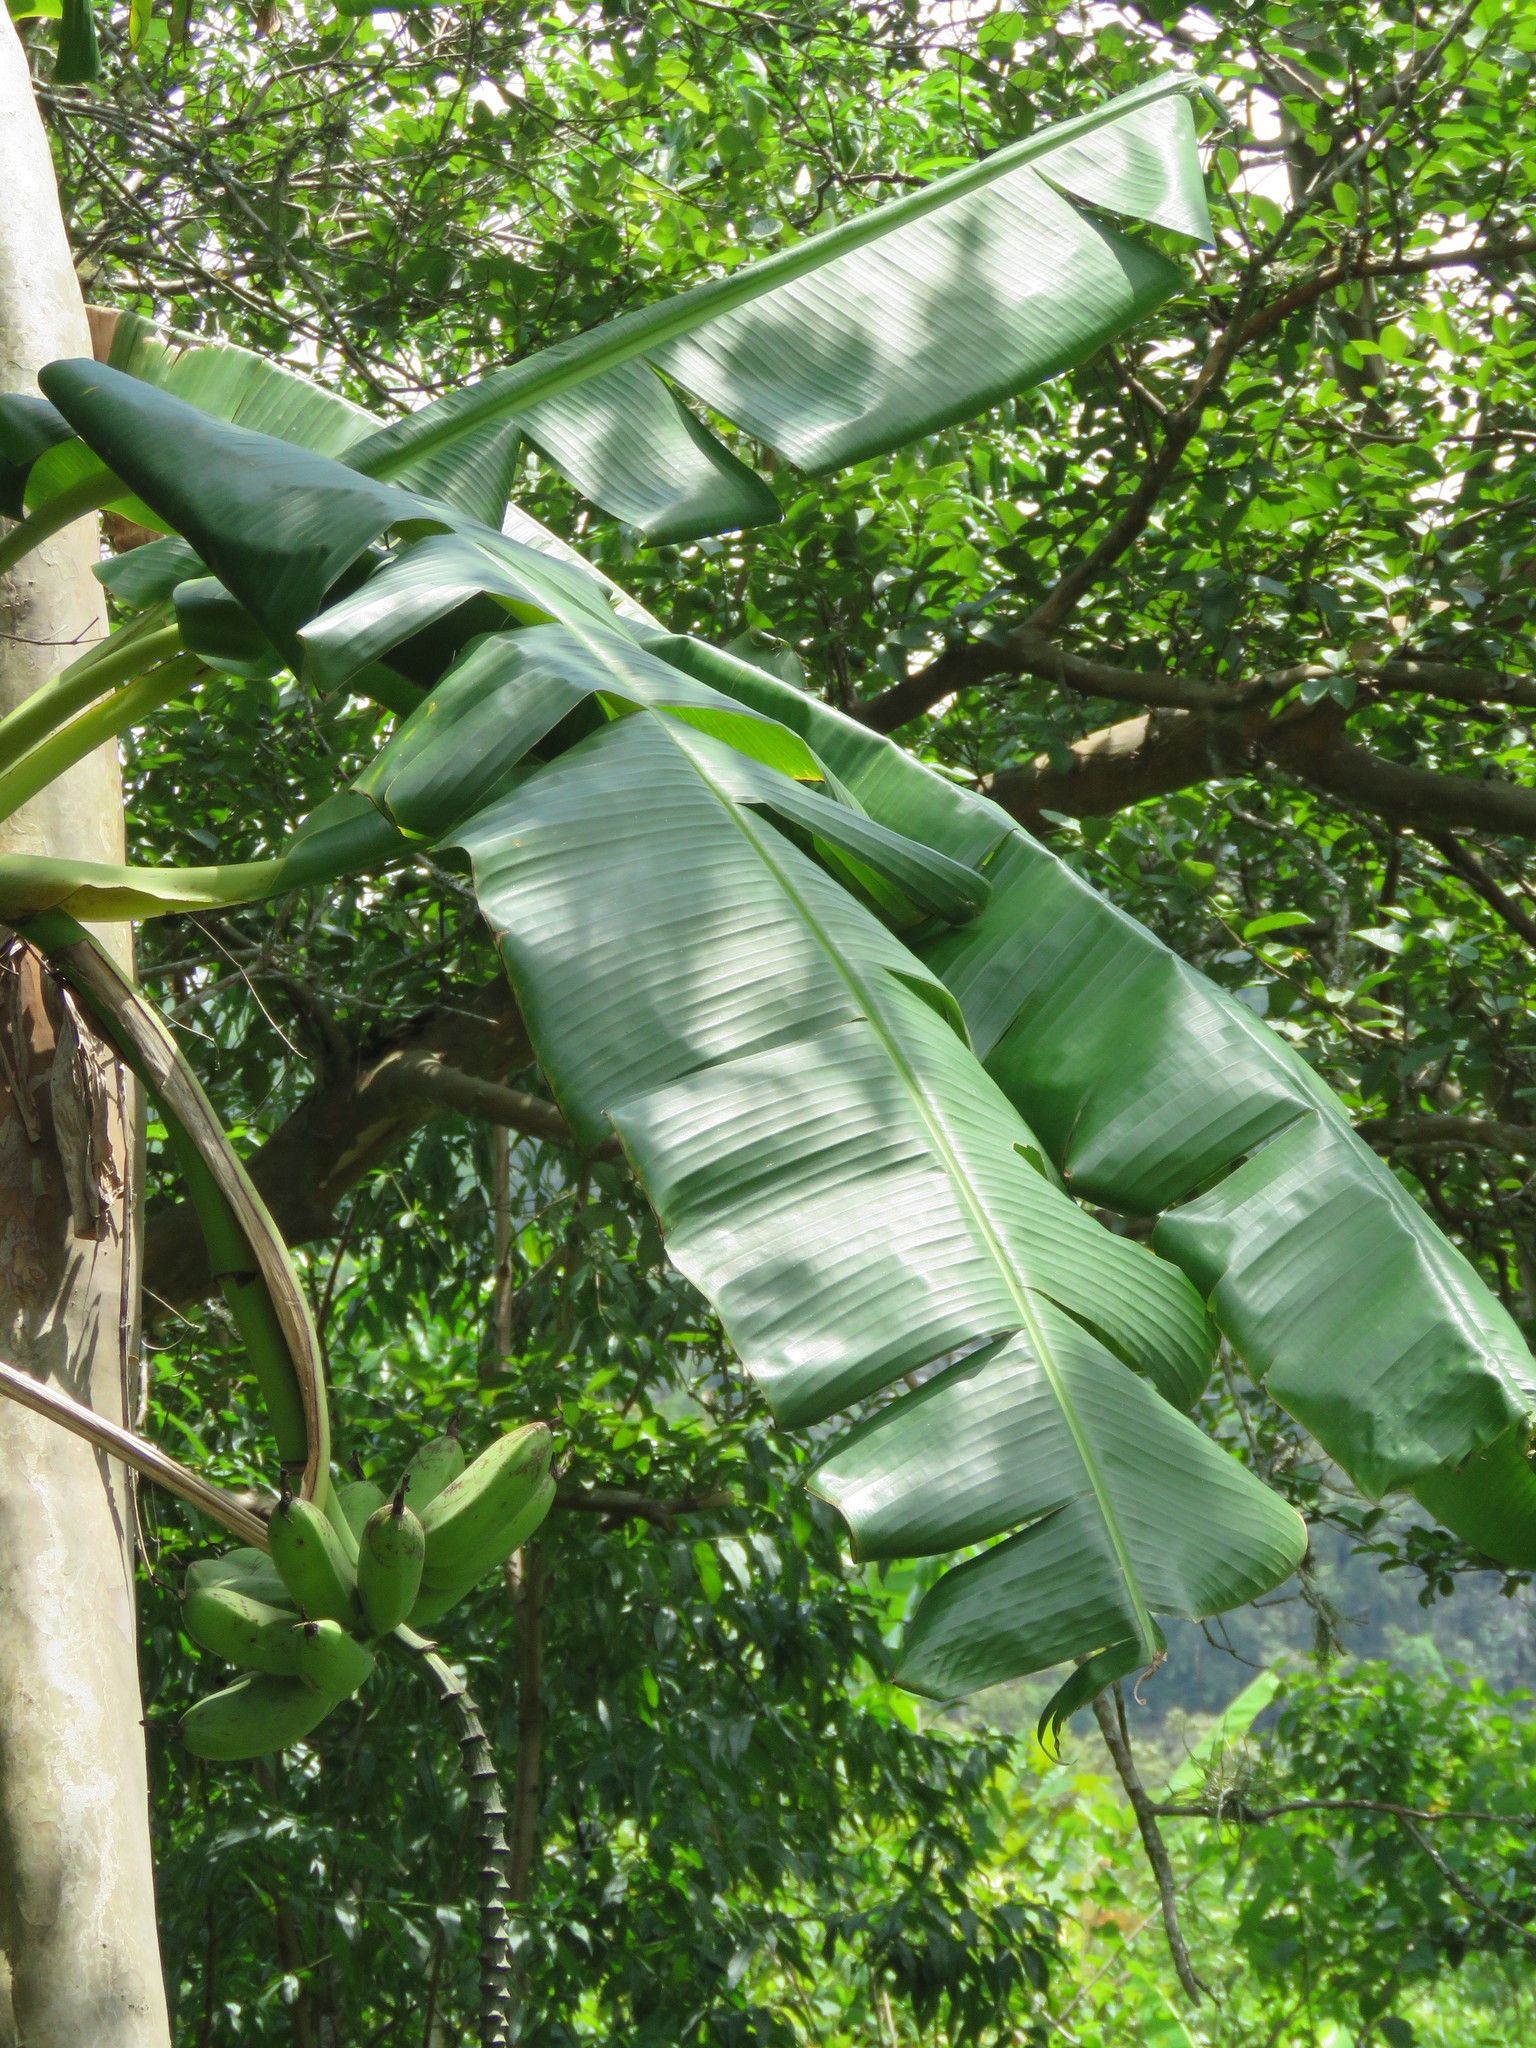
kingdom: Plantae
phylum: Tracheophyta
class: Liliopsida
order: Zingiberales
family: Musaceae
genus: Musa
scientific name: Musa paradisiaca
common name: French plantain
